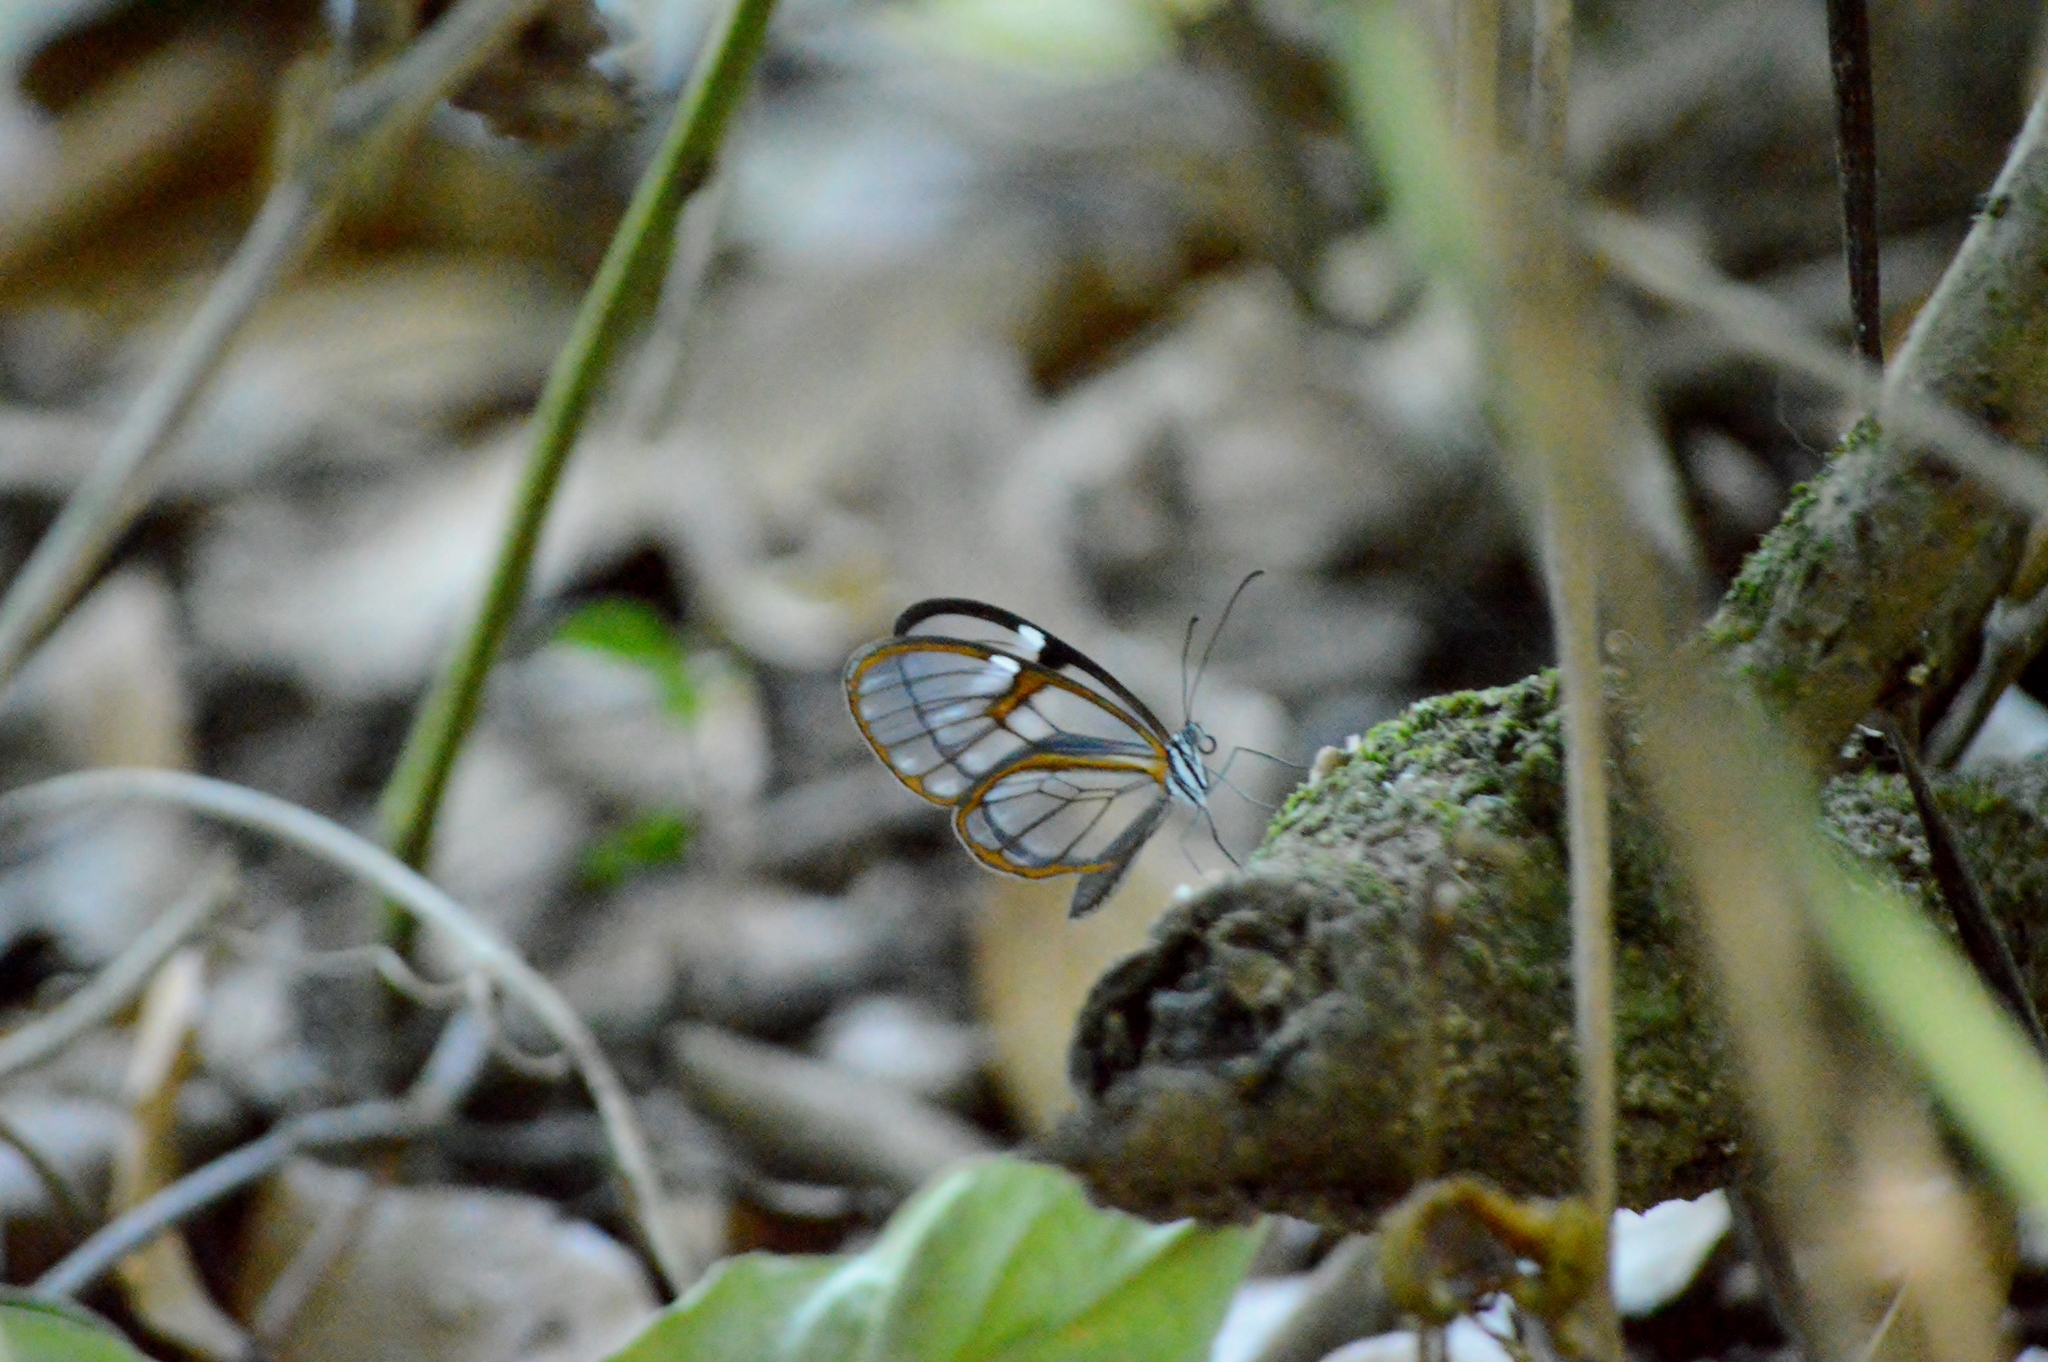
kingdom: Animalia
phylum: Arthropoda
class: Insecta
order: Lepidoptera
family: Nymphalidae
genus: Heterosais
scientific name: Heterosais edessa
